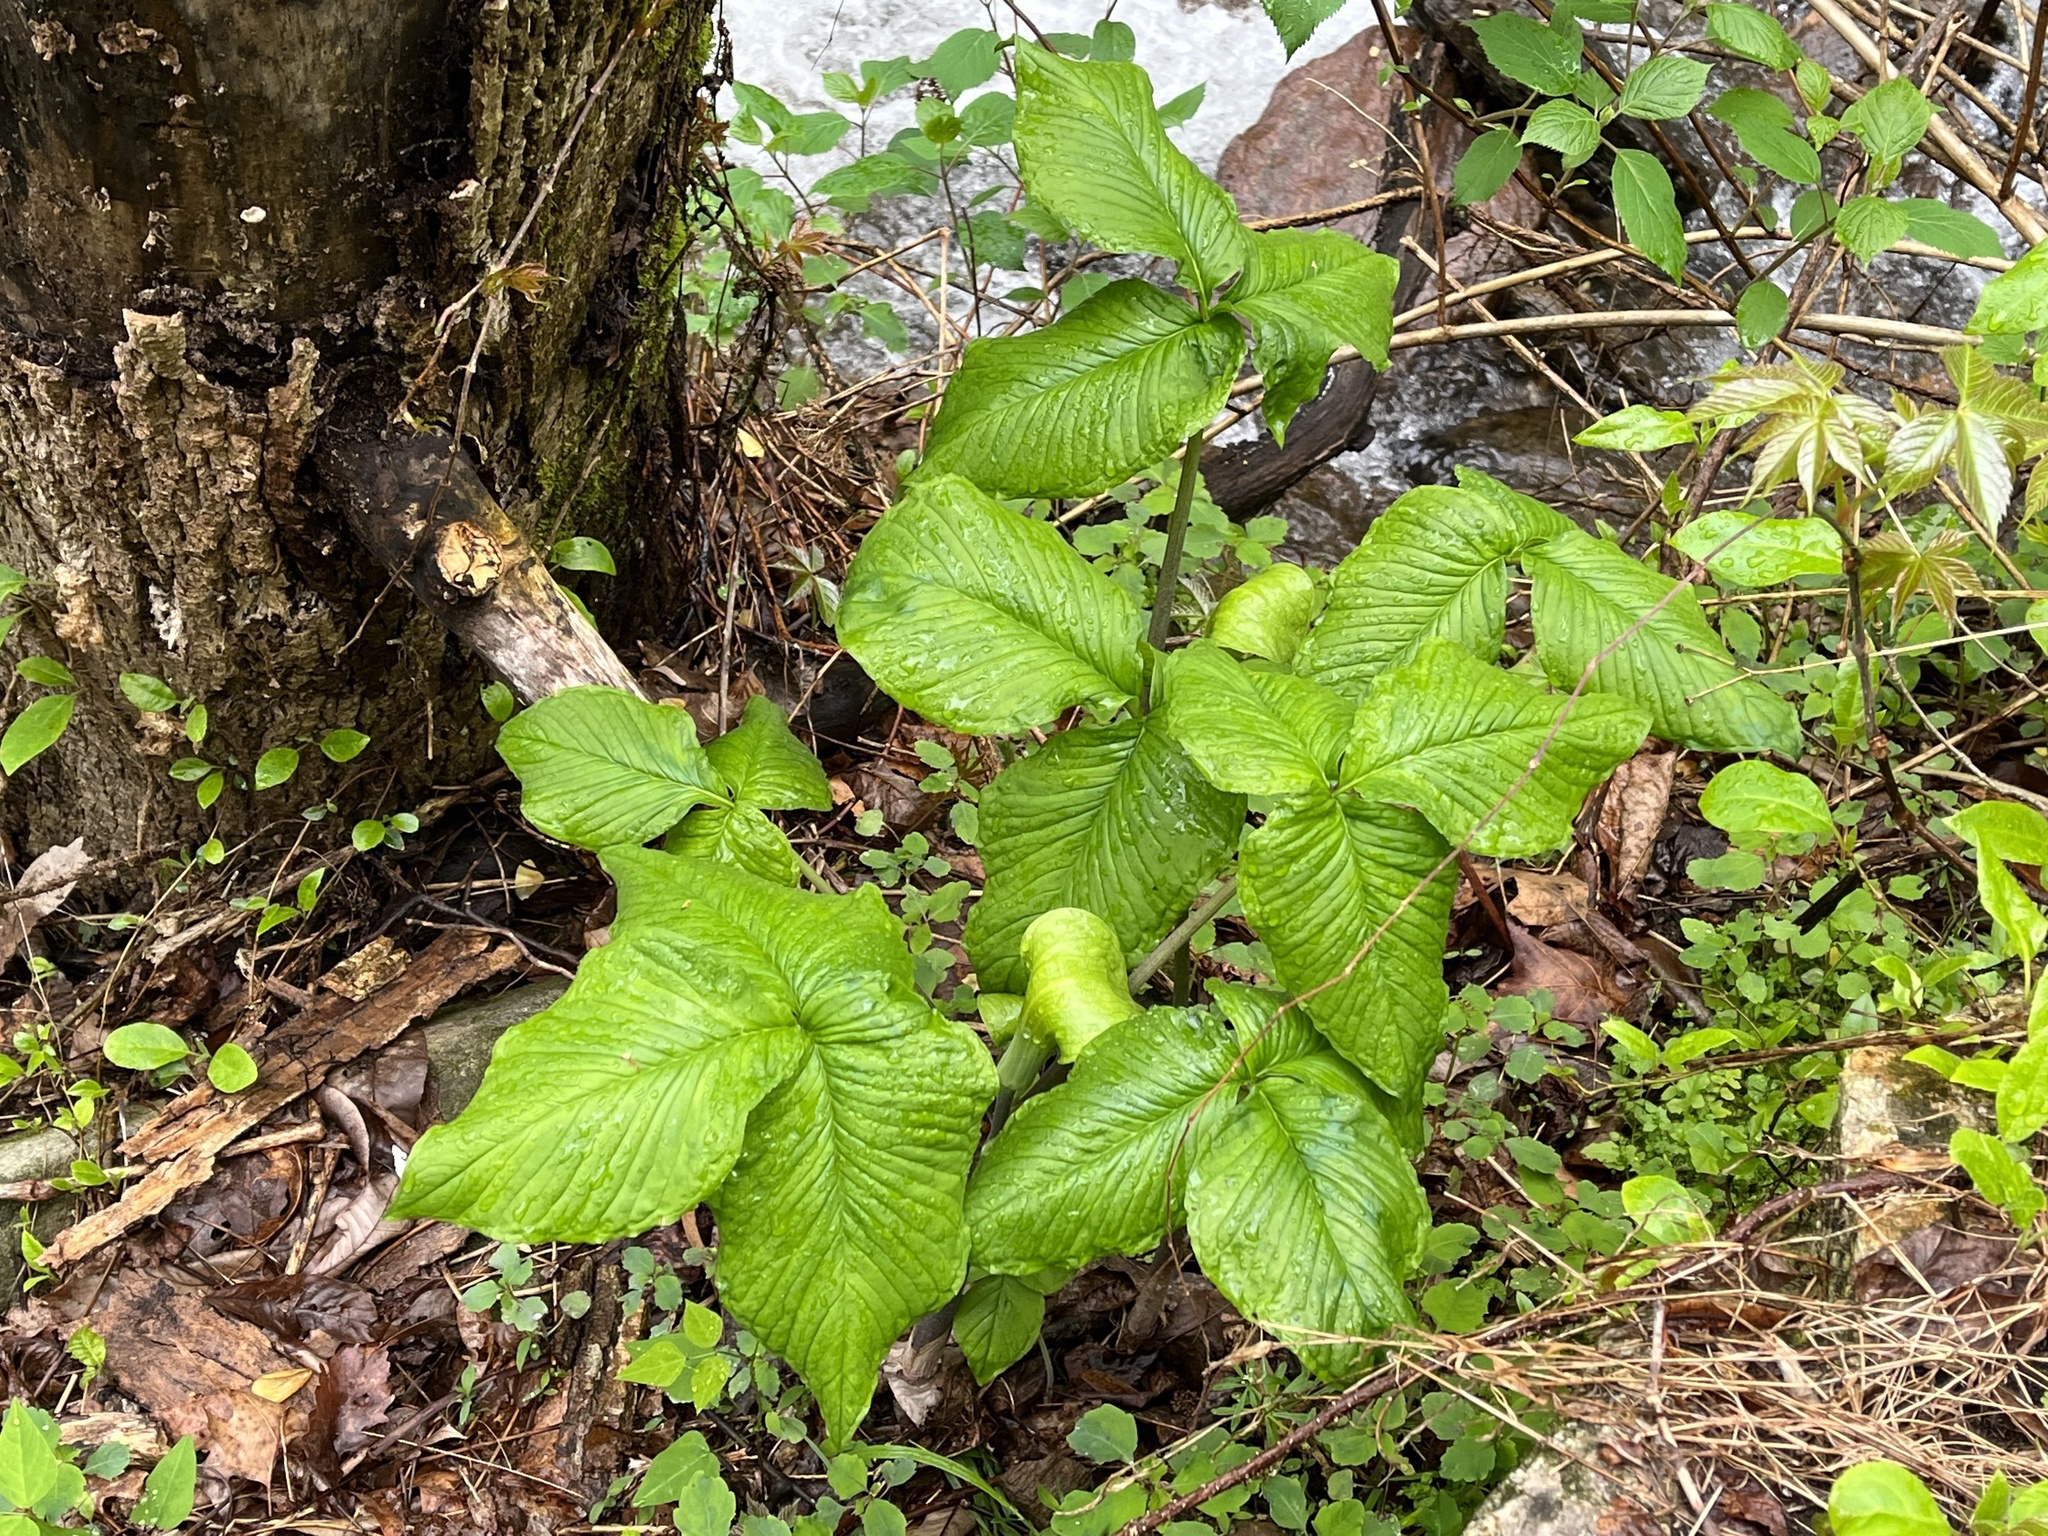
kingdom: Plantae
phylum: Tracheophyta
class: Liliopsida
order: Alismatales
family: Araceae
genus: Arisaema
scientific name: Arisaema triphyllum
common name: Jack-in-the-pulpit
